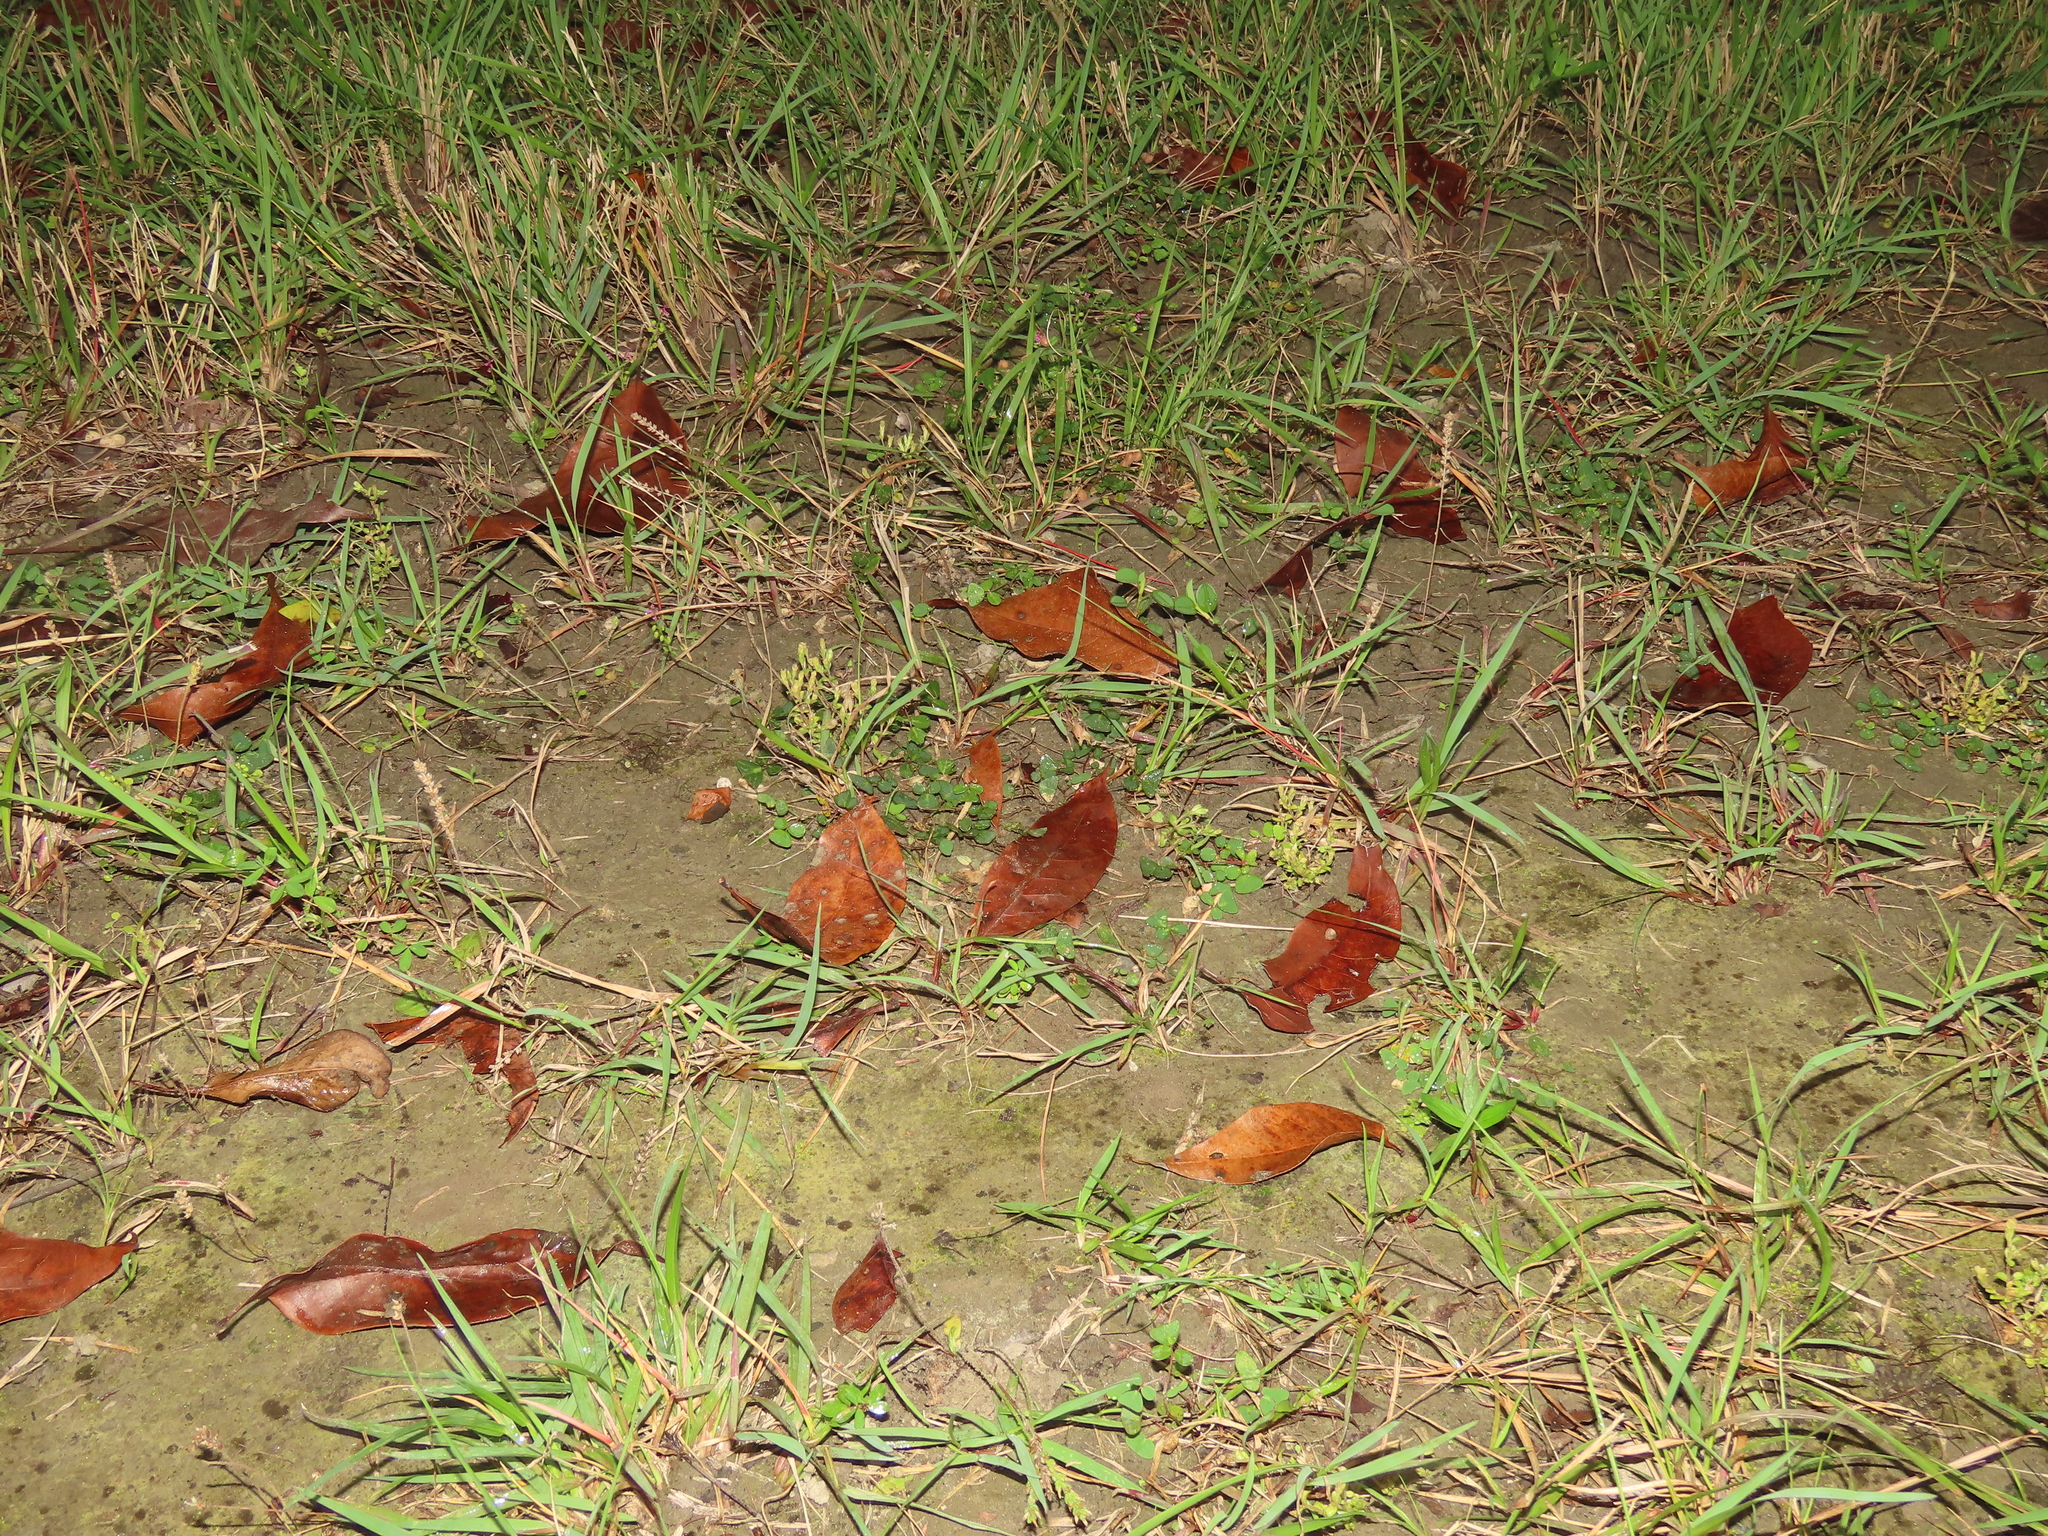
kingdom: Plantae
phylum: Tracheophyta
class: Magnoliopsida
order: Gentianales
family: Gentianaceae
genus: Gentiana
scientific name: Gentiana yokusai
